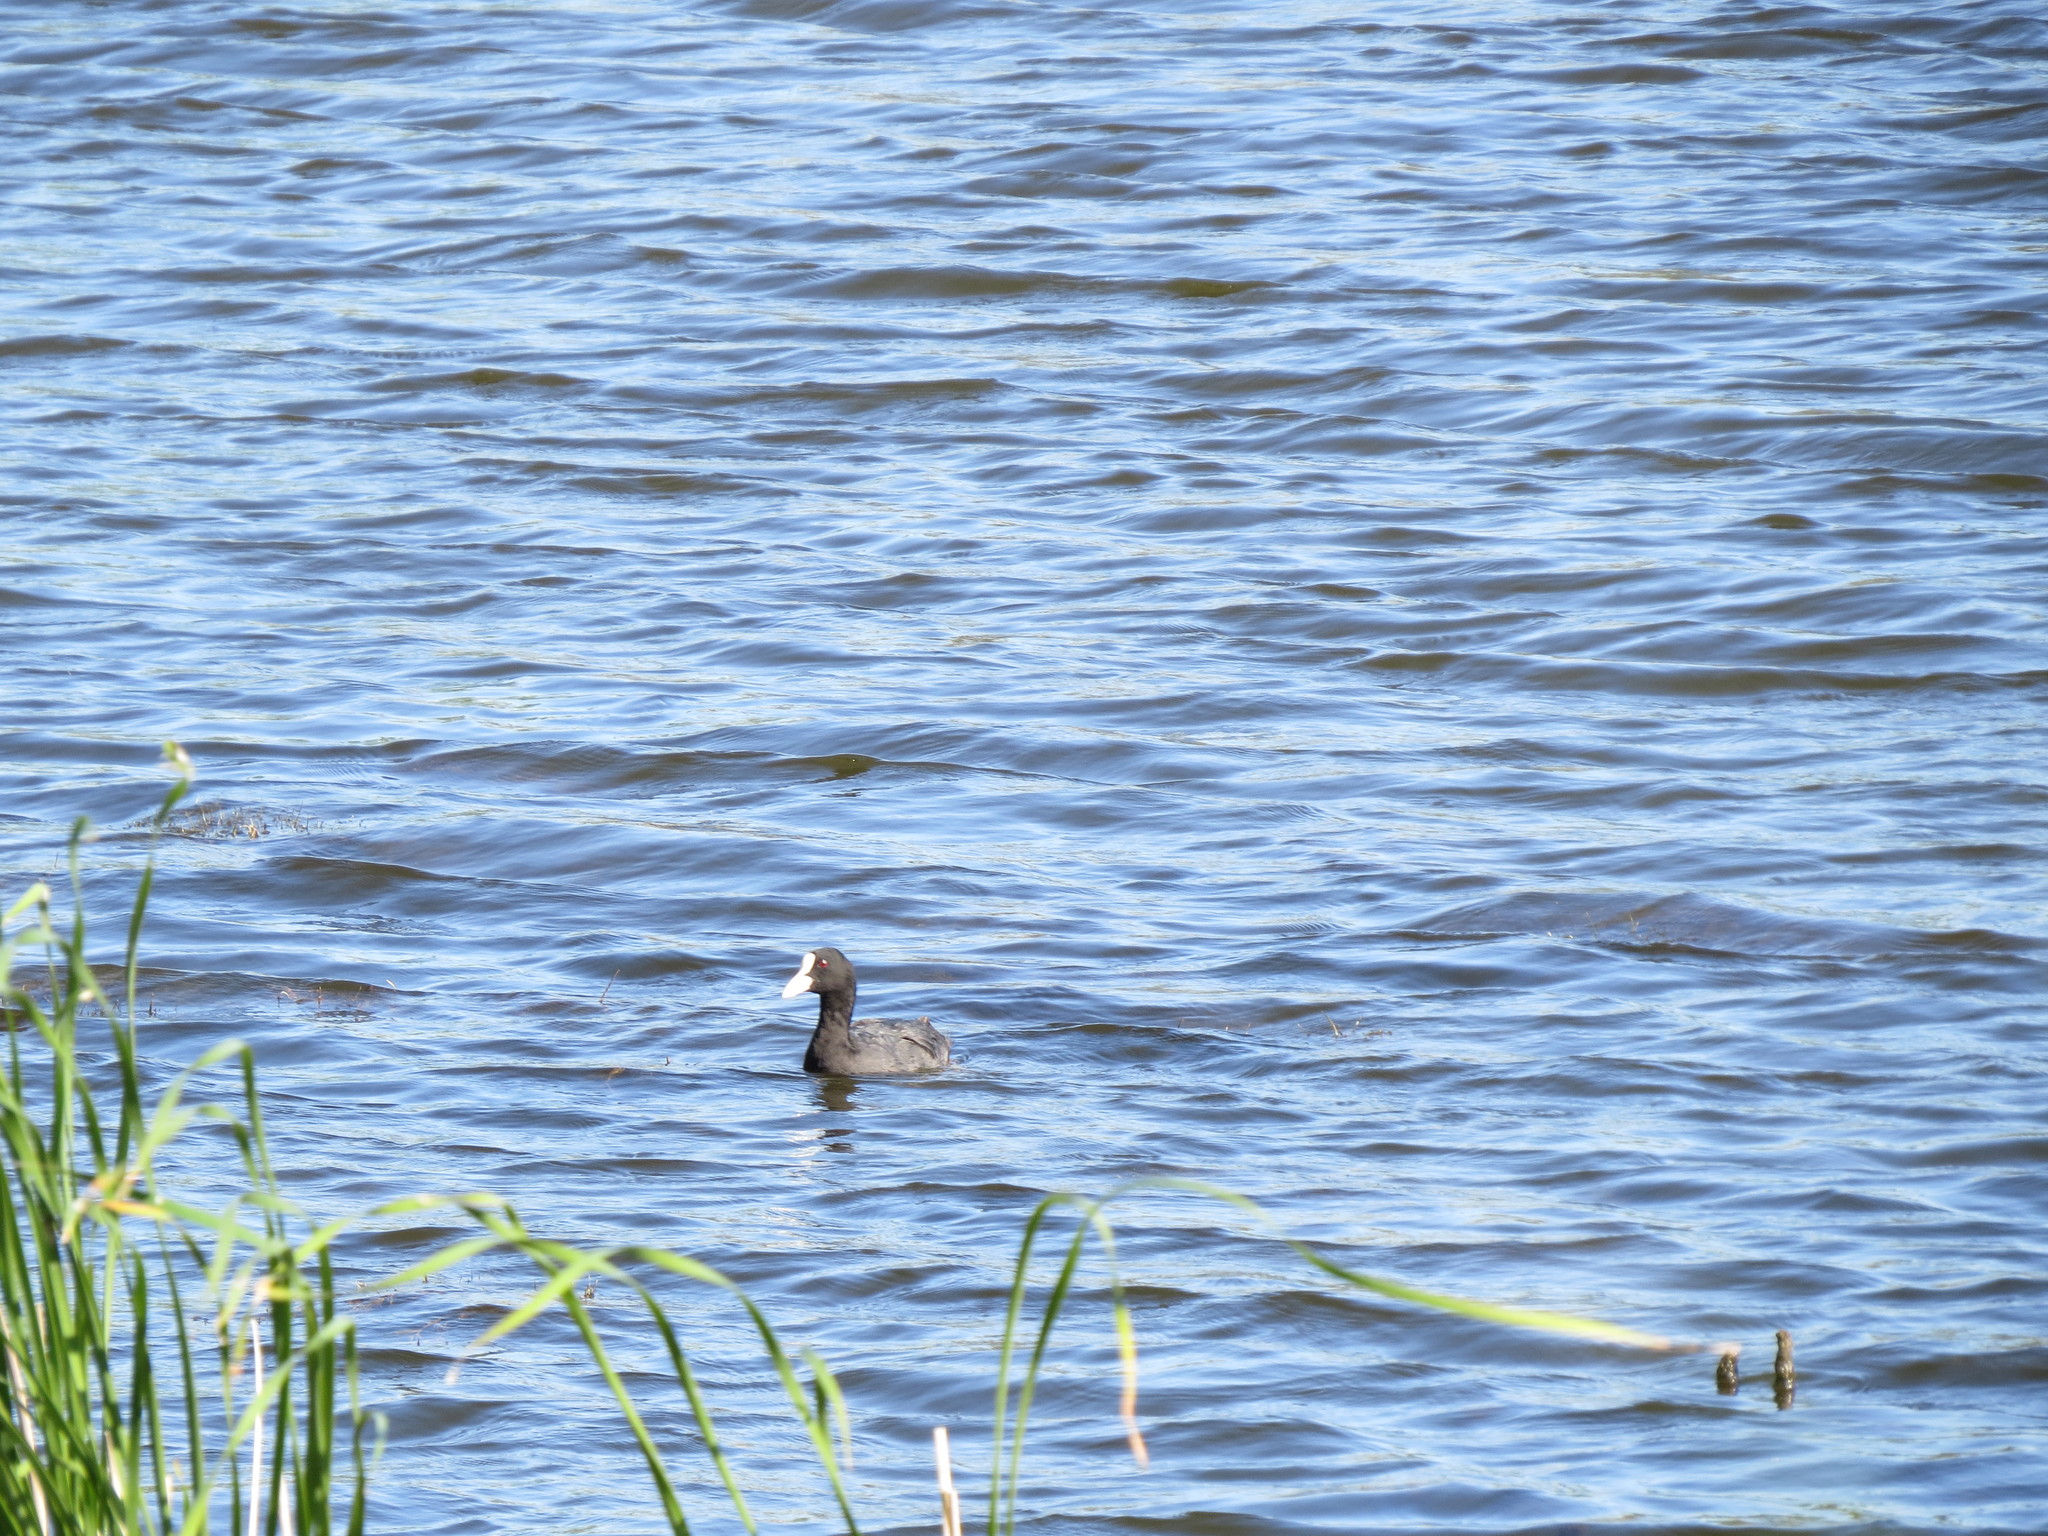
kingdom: Animalia
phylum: Chordata
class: Aves
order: Gruiformes
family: Rallidae
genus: Fulica
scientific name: Fulica atra
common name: Eurasian coot
